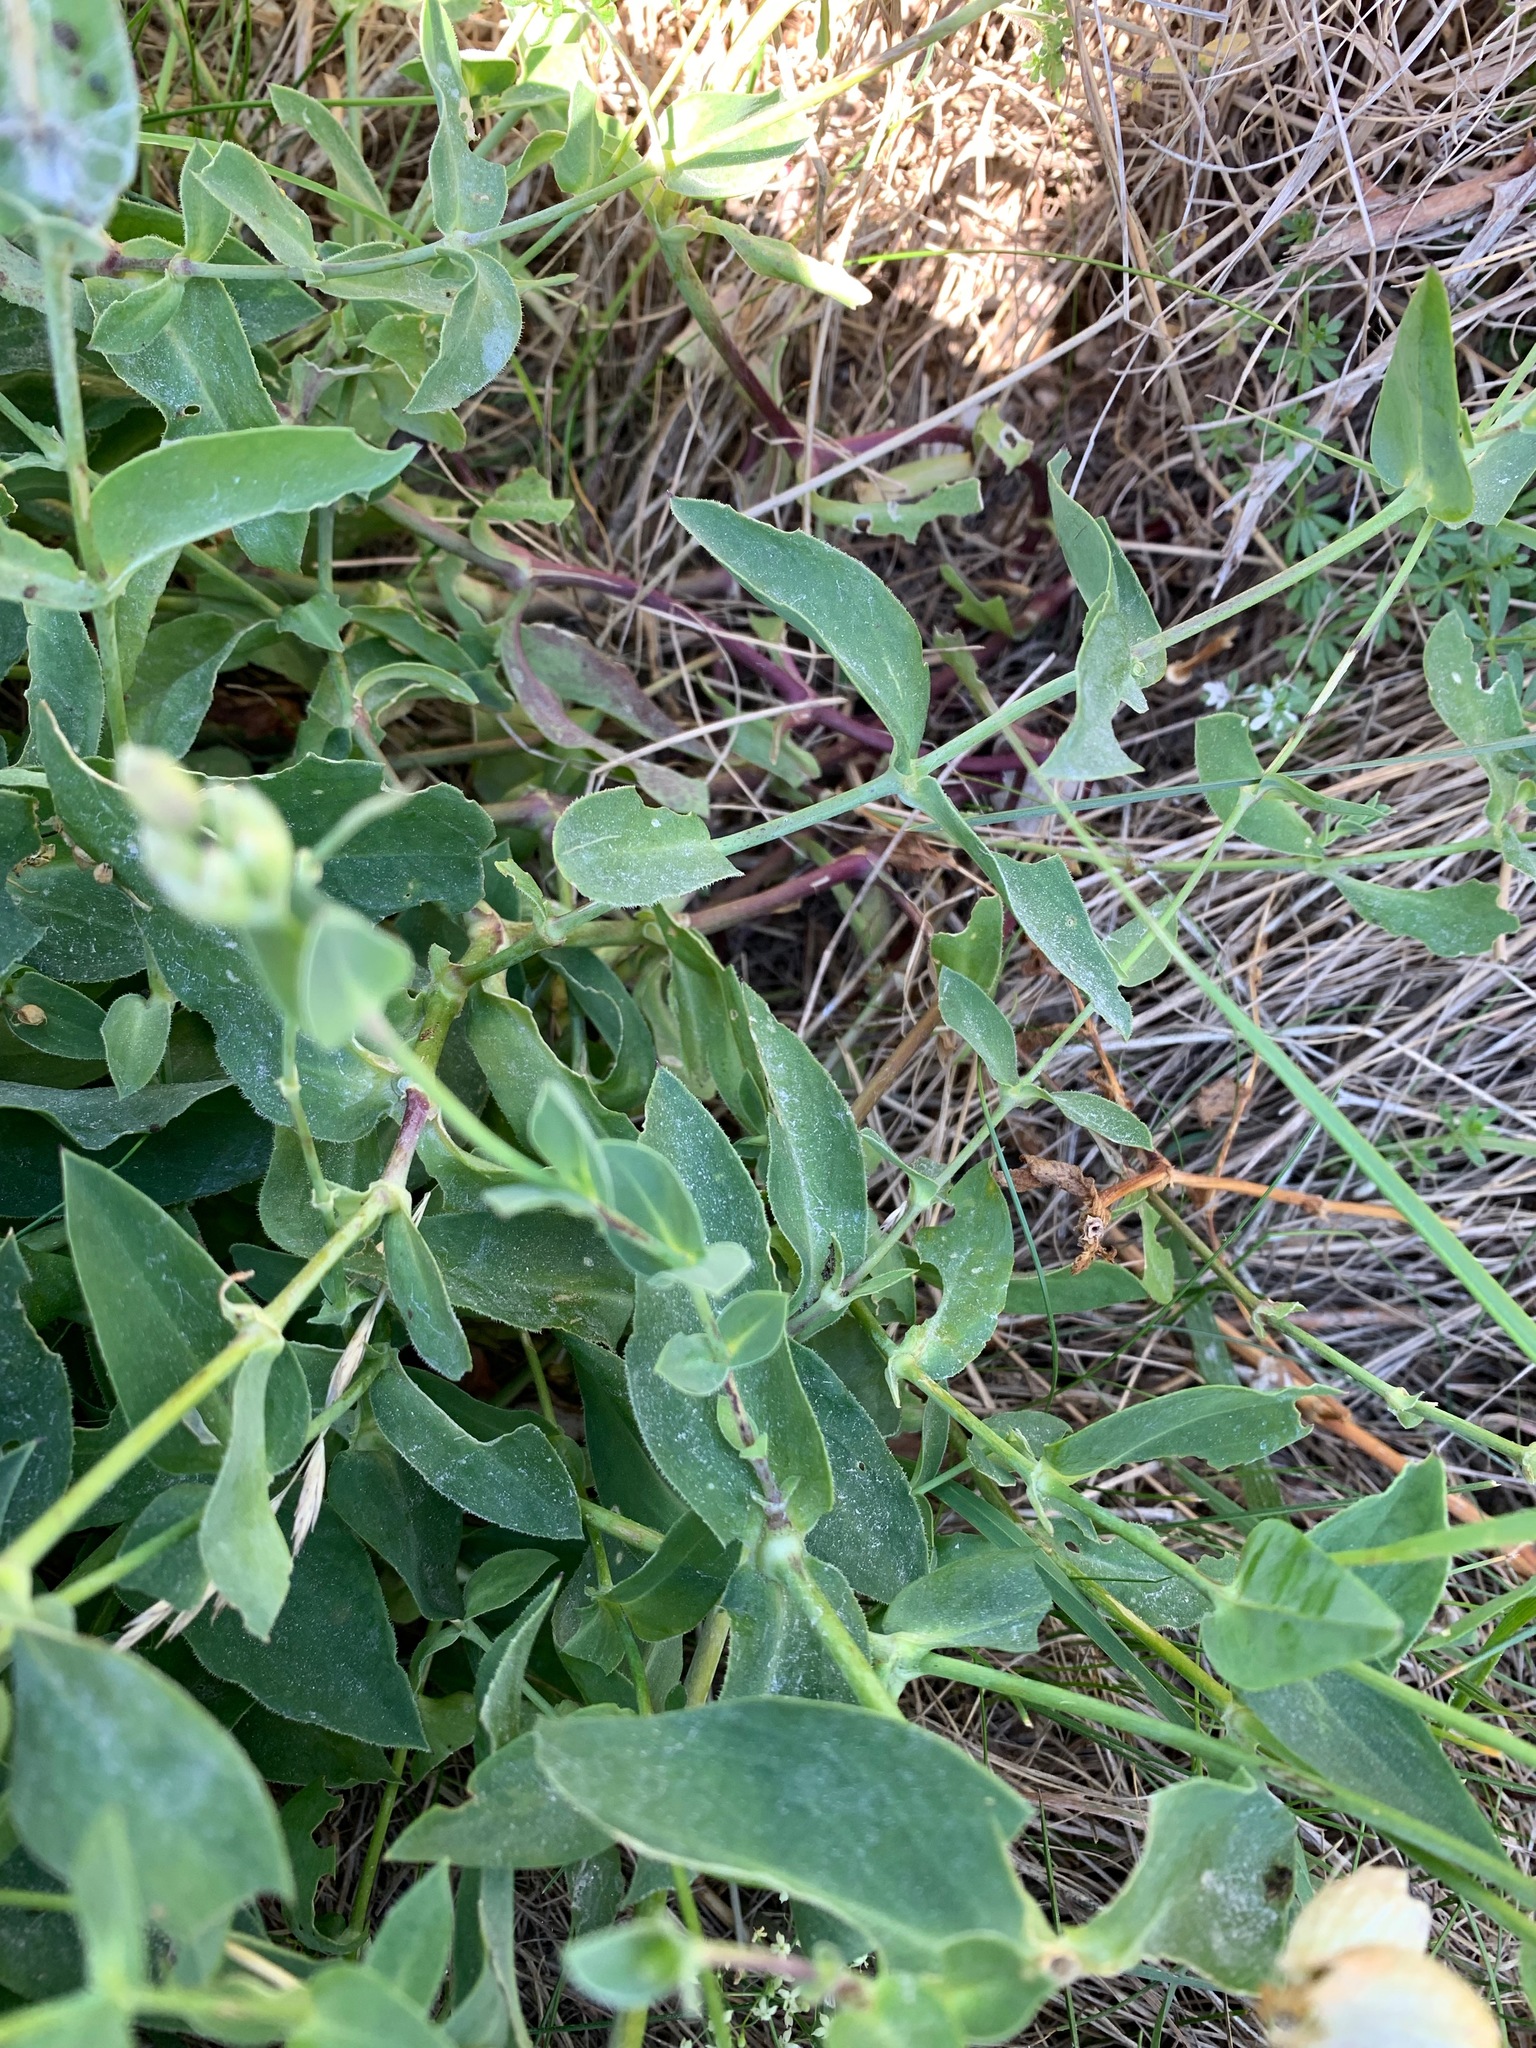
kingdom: Plantae
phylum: Tracheophyta
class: Magnoliopsida
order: Caryophyllales
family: Caryophyllaceae
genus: Silene
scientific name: Silene vulgaris
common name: Bladder campion
